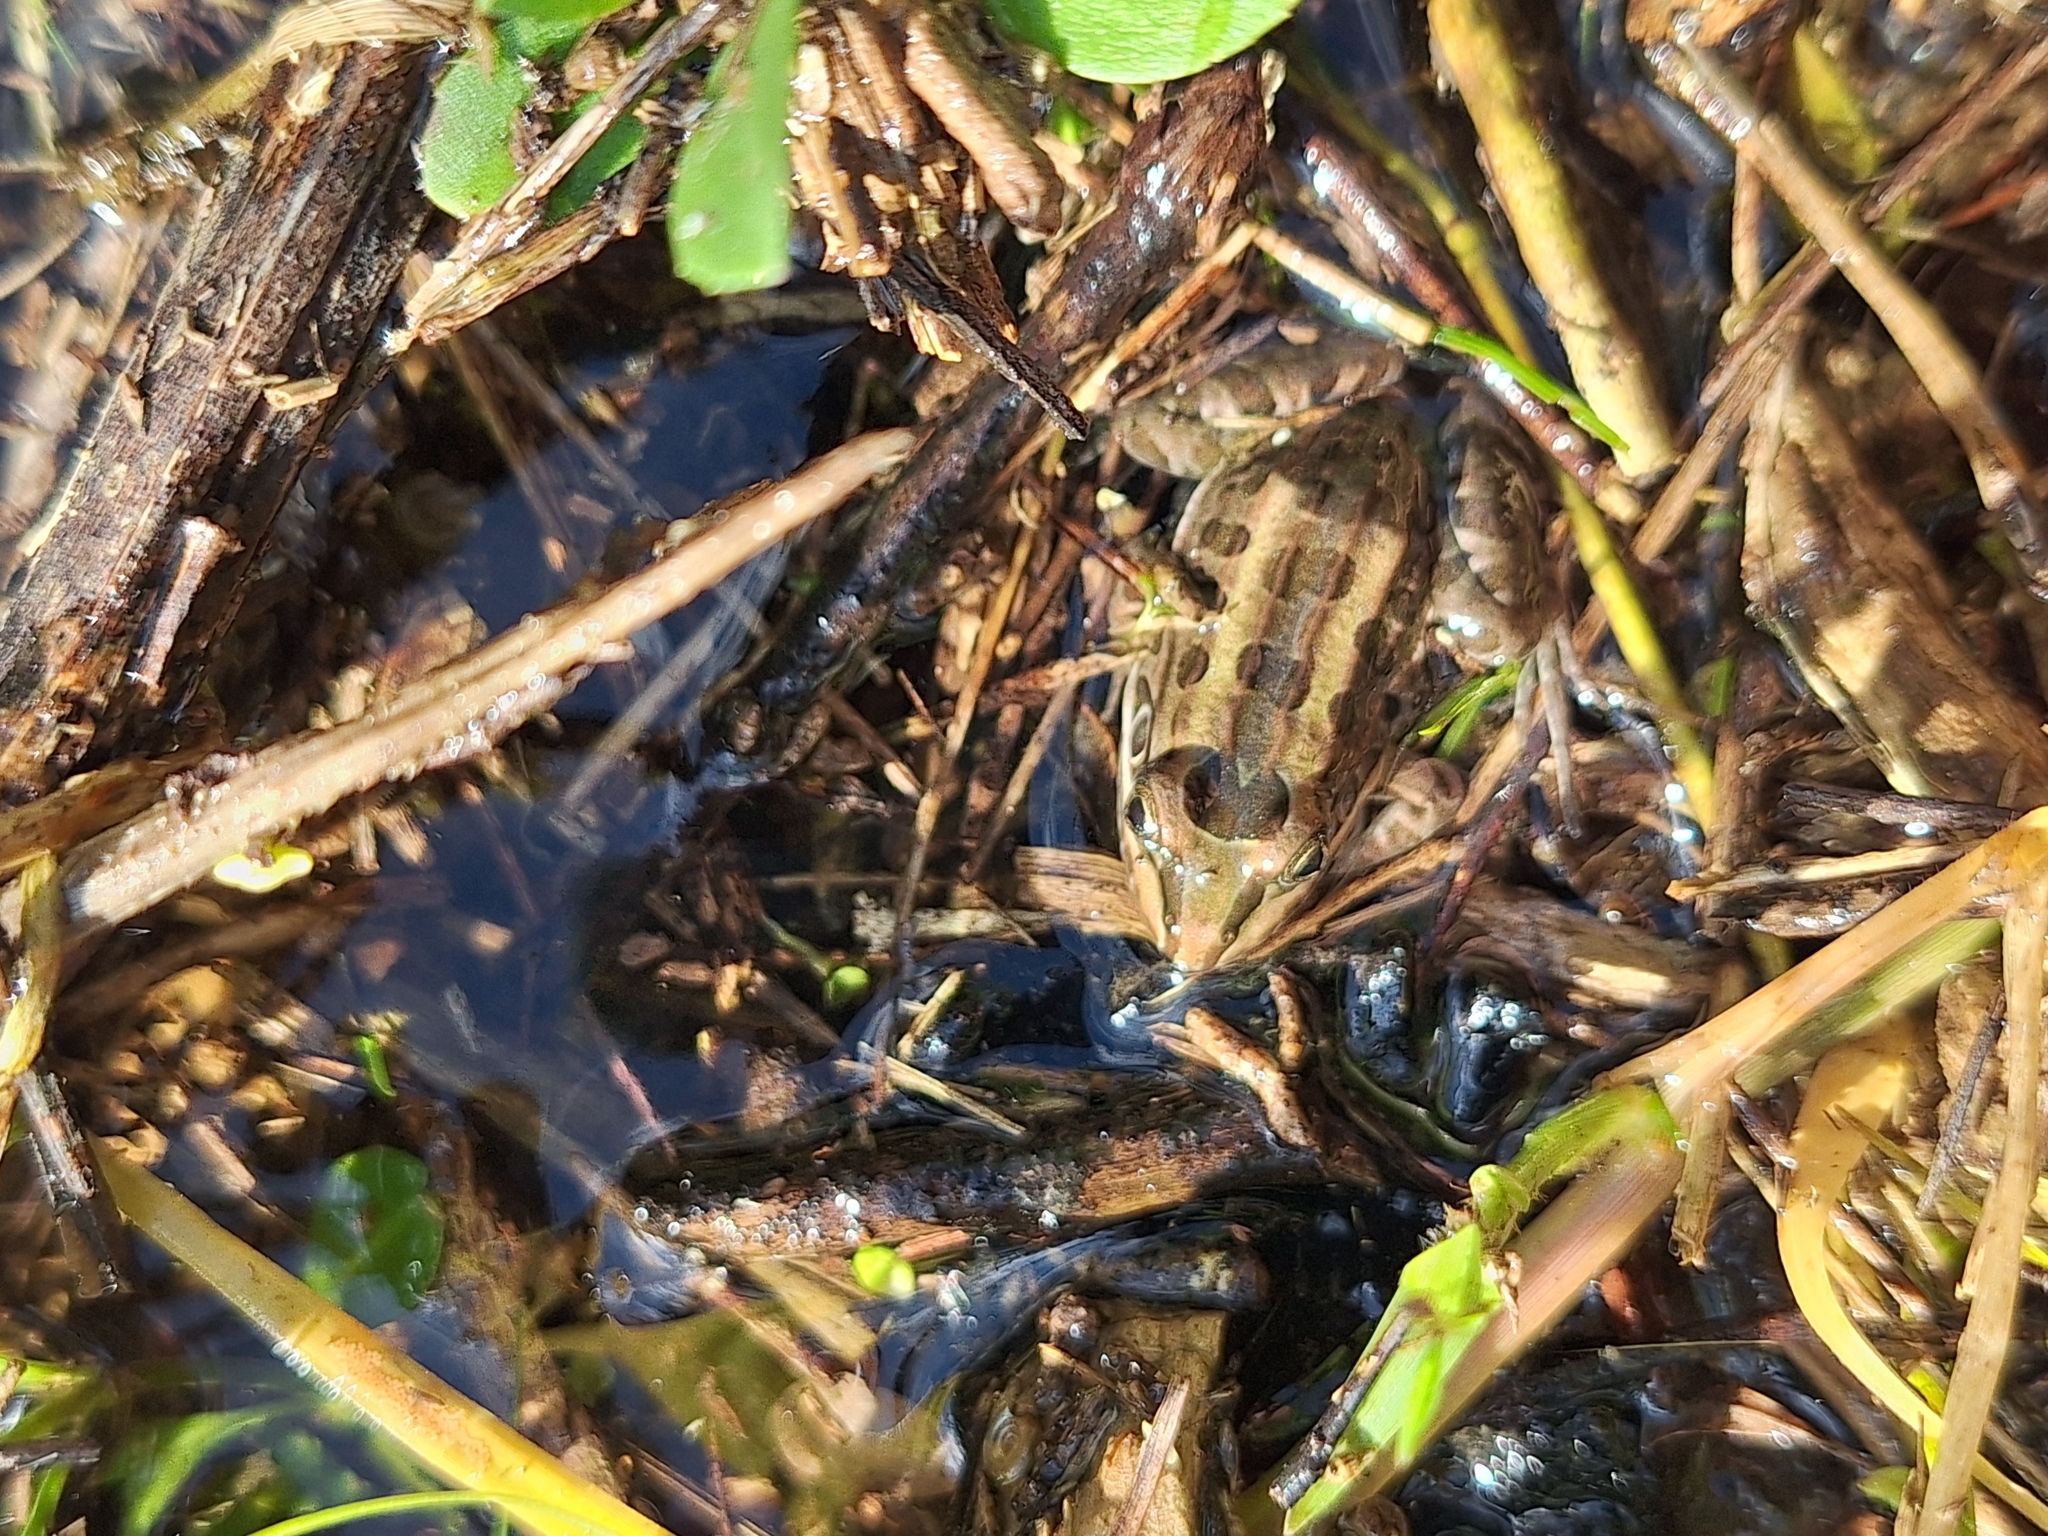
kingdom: Animalia
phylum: Chordata
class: Amphibia
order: Anura
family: Leptodactylidae
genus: Leptodactylus
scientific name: Leptodactylus luctator
